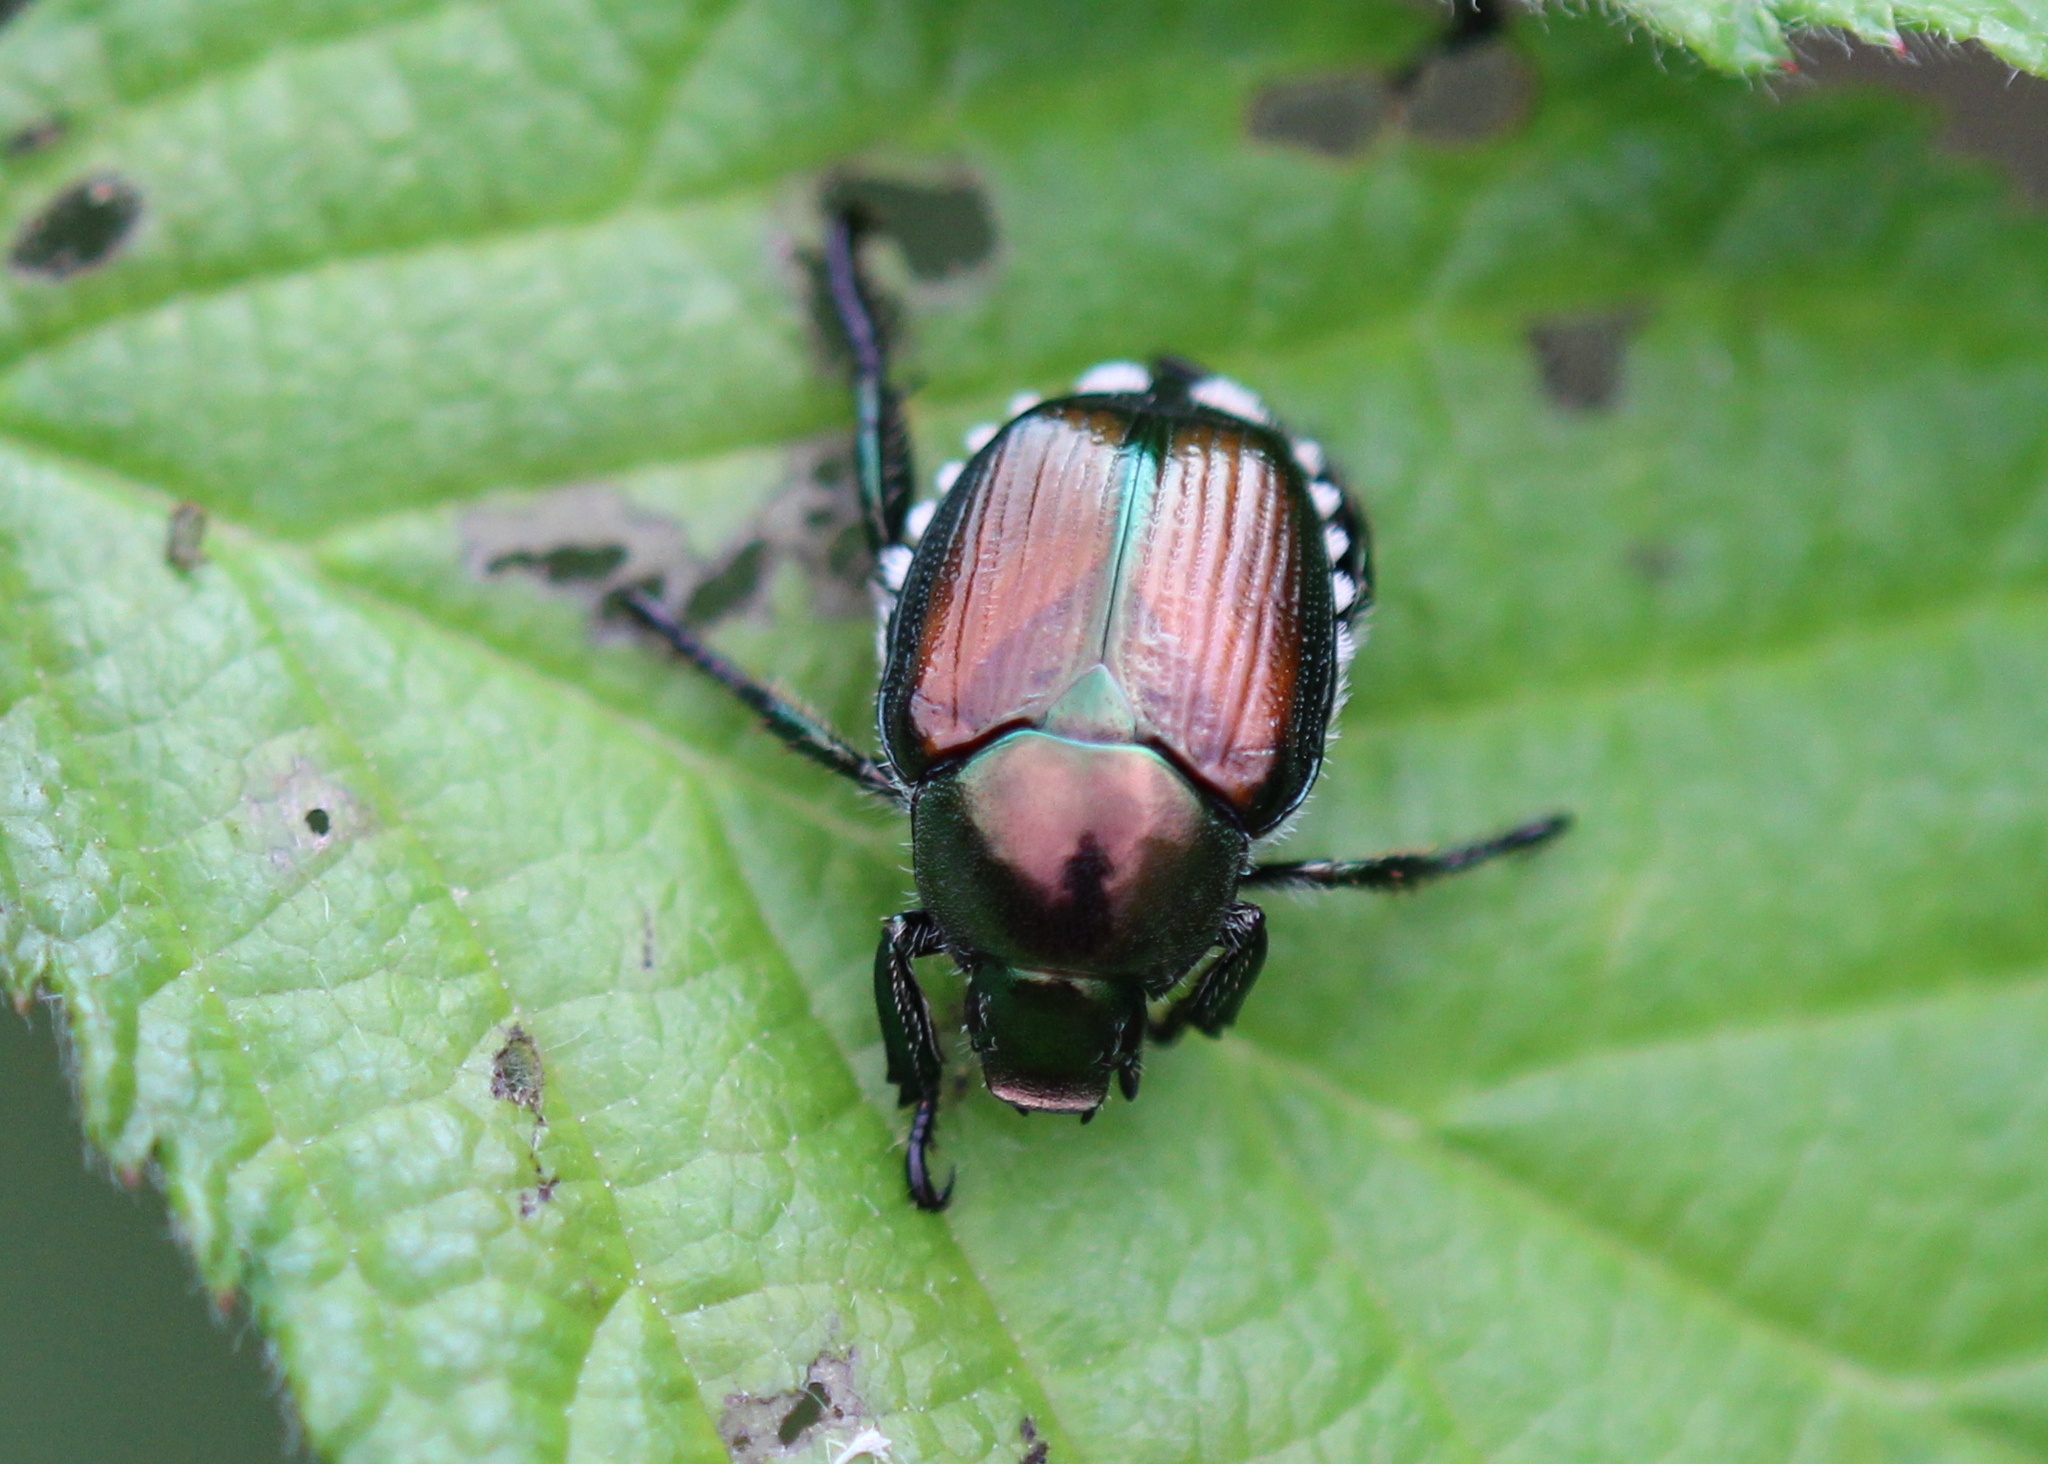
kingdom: Animalia
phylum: Arthropoda
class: Insecta
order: Coleoptera
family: Scarabaeidae
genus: Popillia
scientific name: Popillia japonica
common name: Japanese beetle
